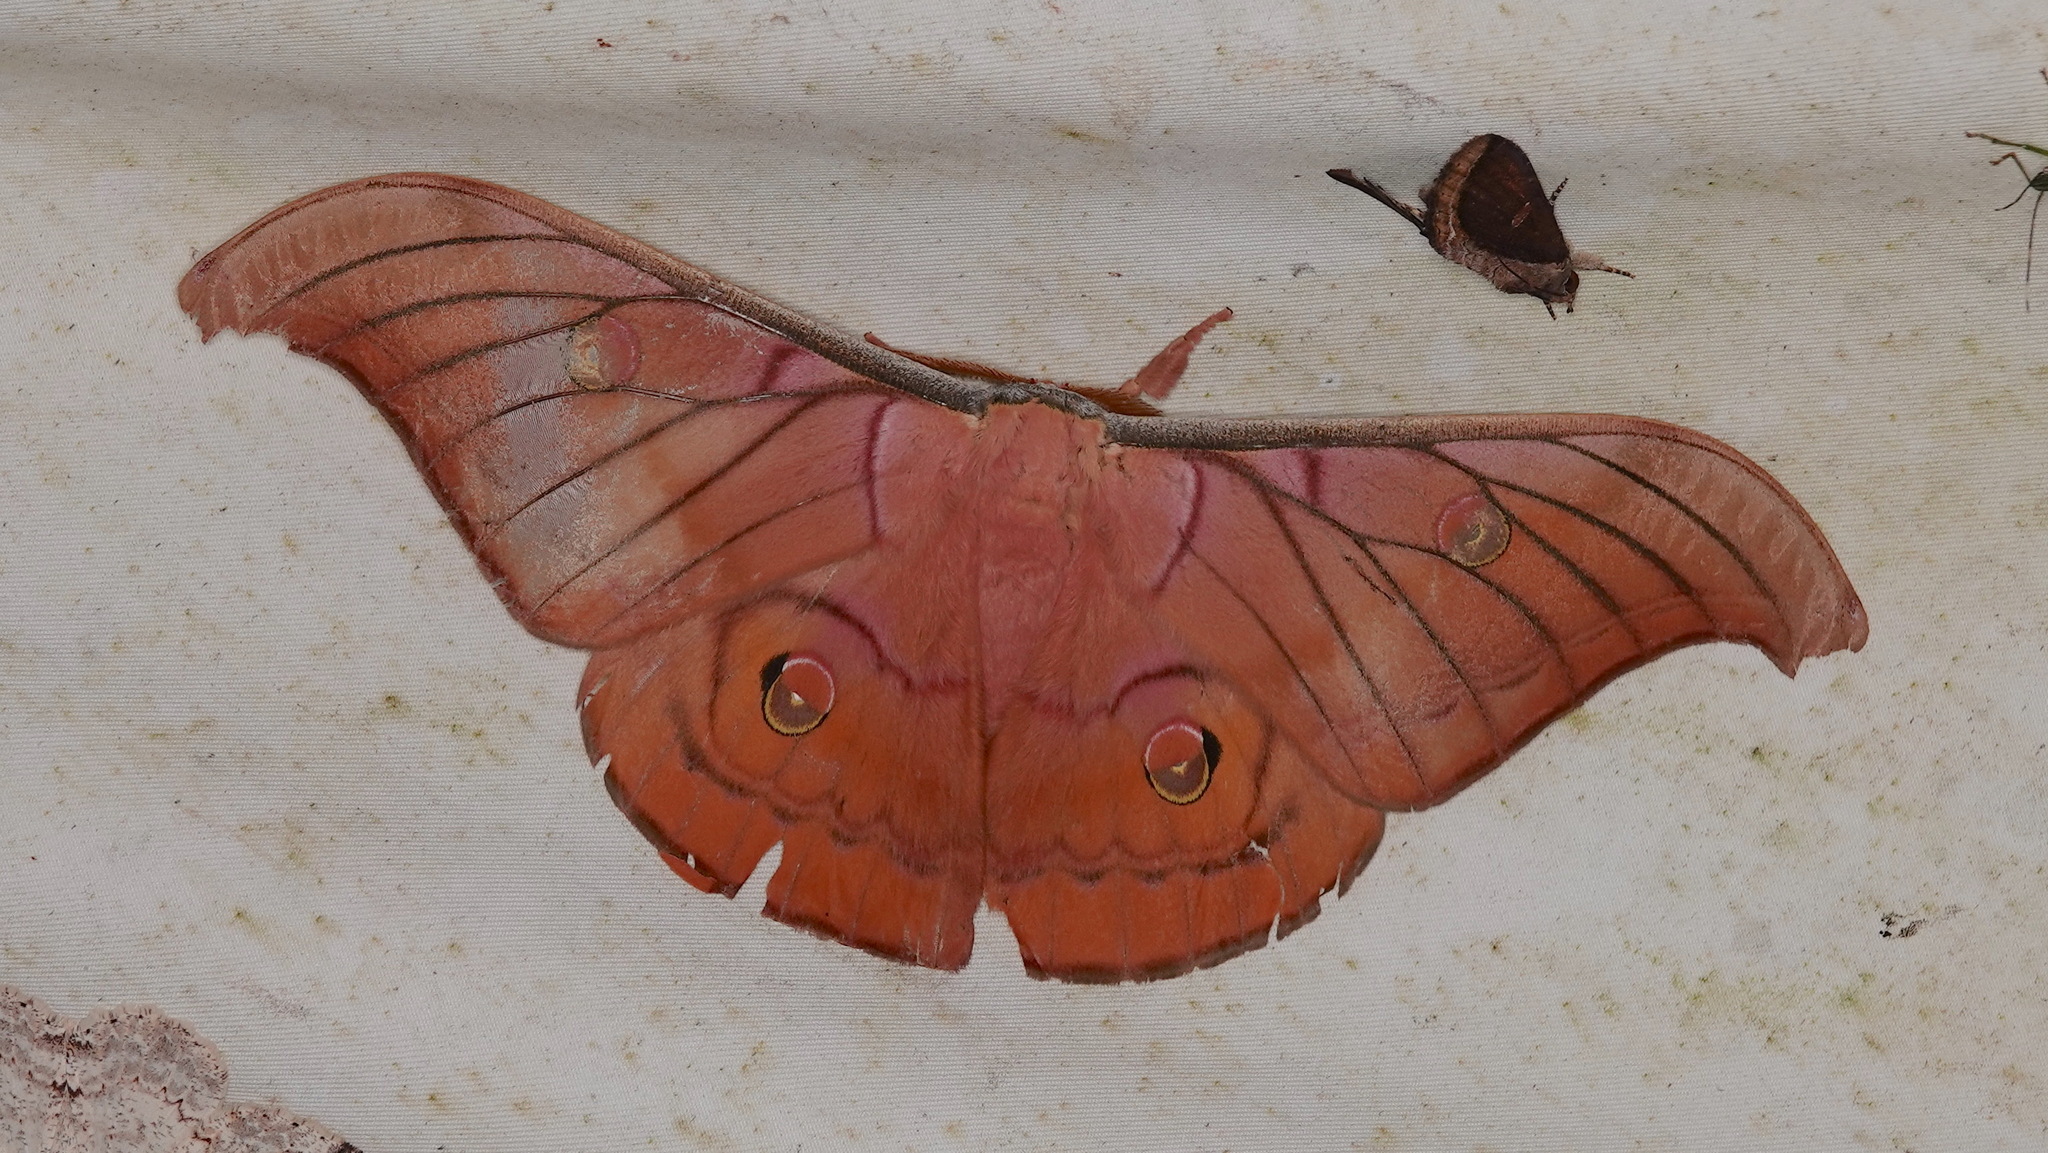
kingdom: Animalia
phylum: Arthropoda
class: Insecta
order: Lepidoptera
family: Saturniidae
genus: Antheraea
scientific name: Antheraea helferi
